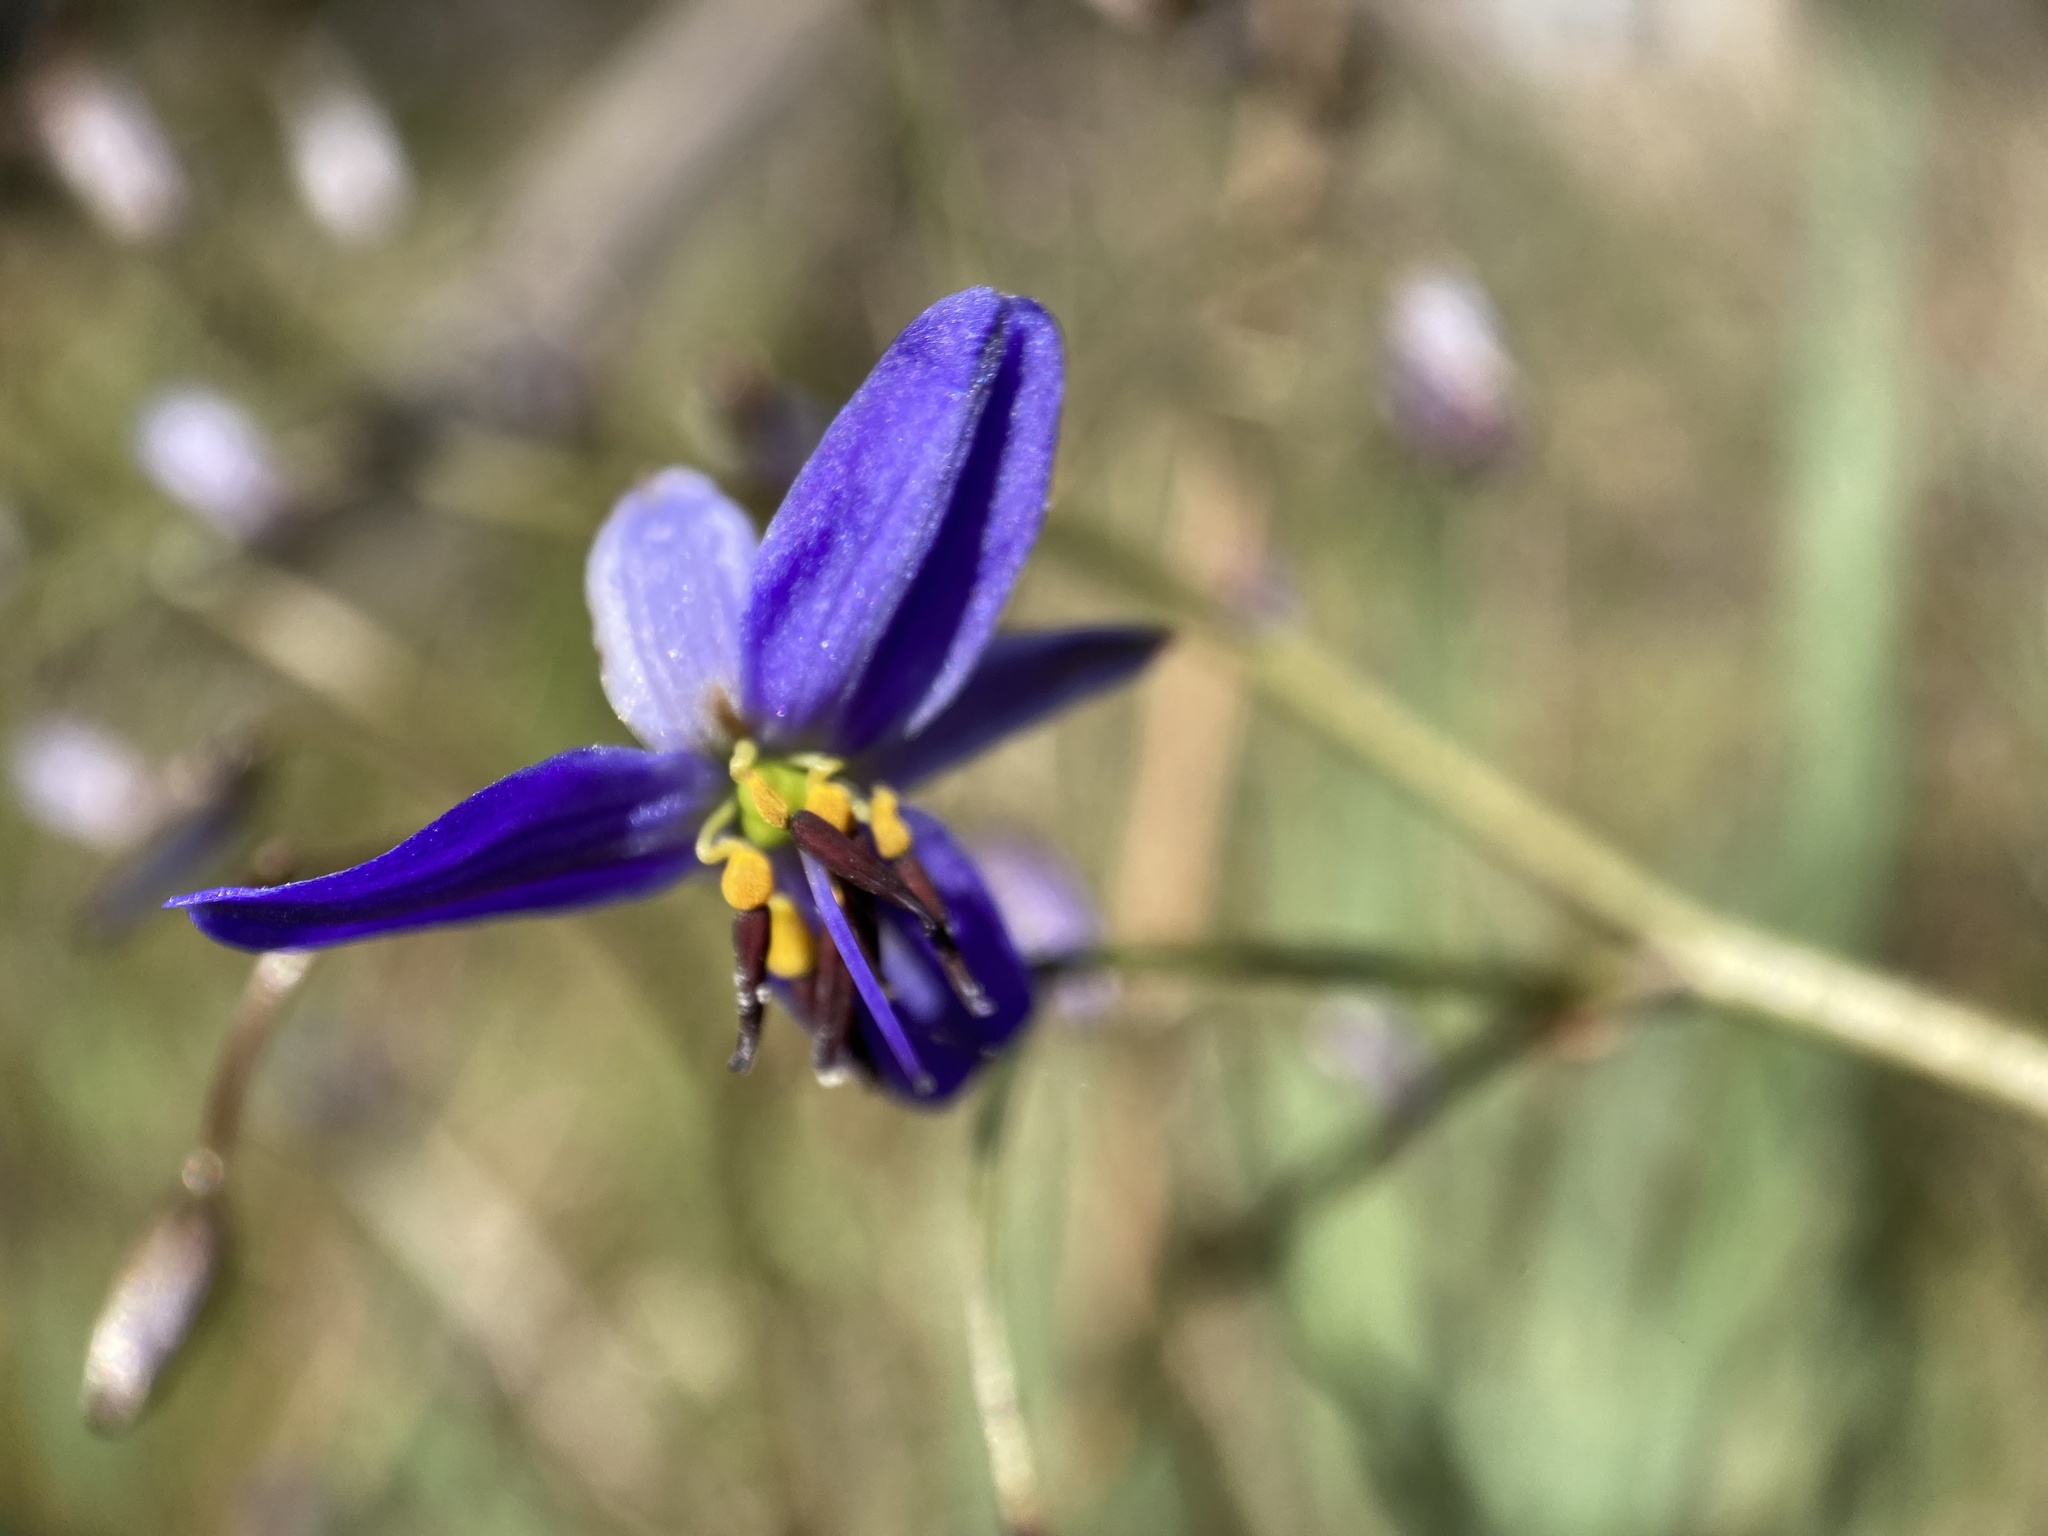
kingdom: Plantae
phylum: Tracheophyta
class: Liliopsida
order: Asparagales
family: Asphodelaceae
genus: Dianella
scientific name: Dianella revoluta
